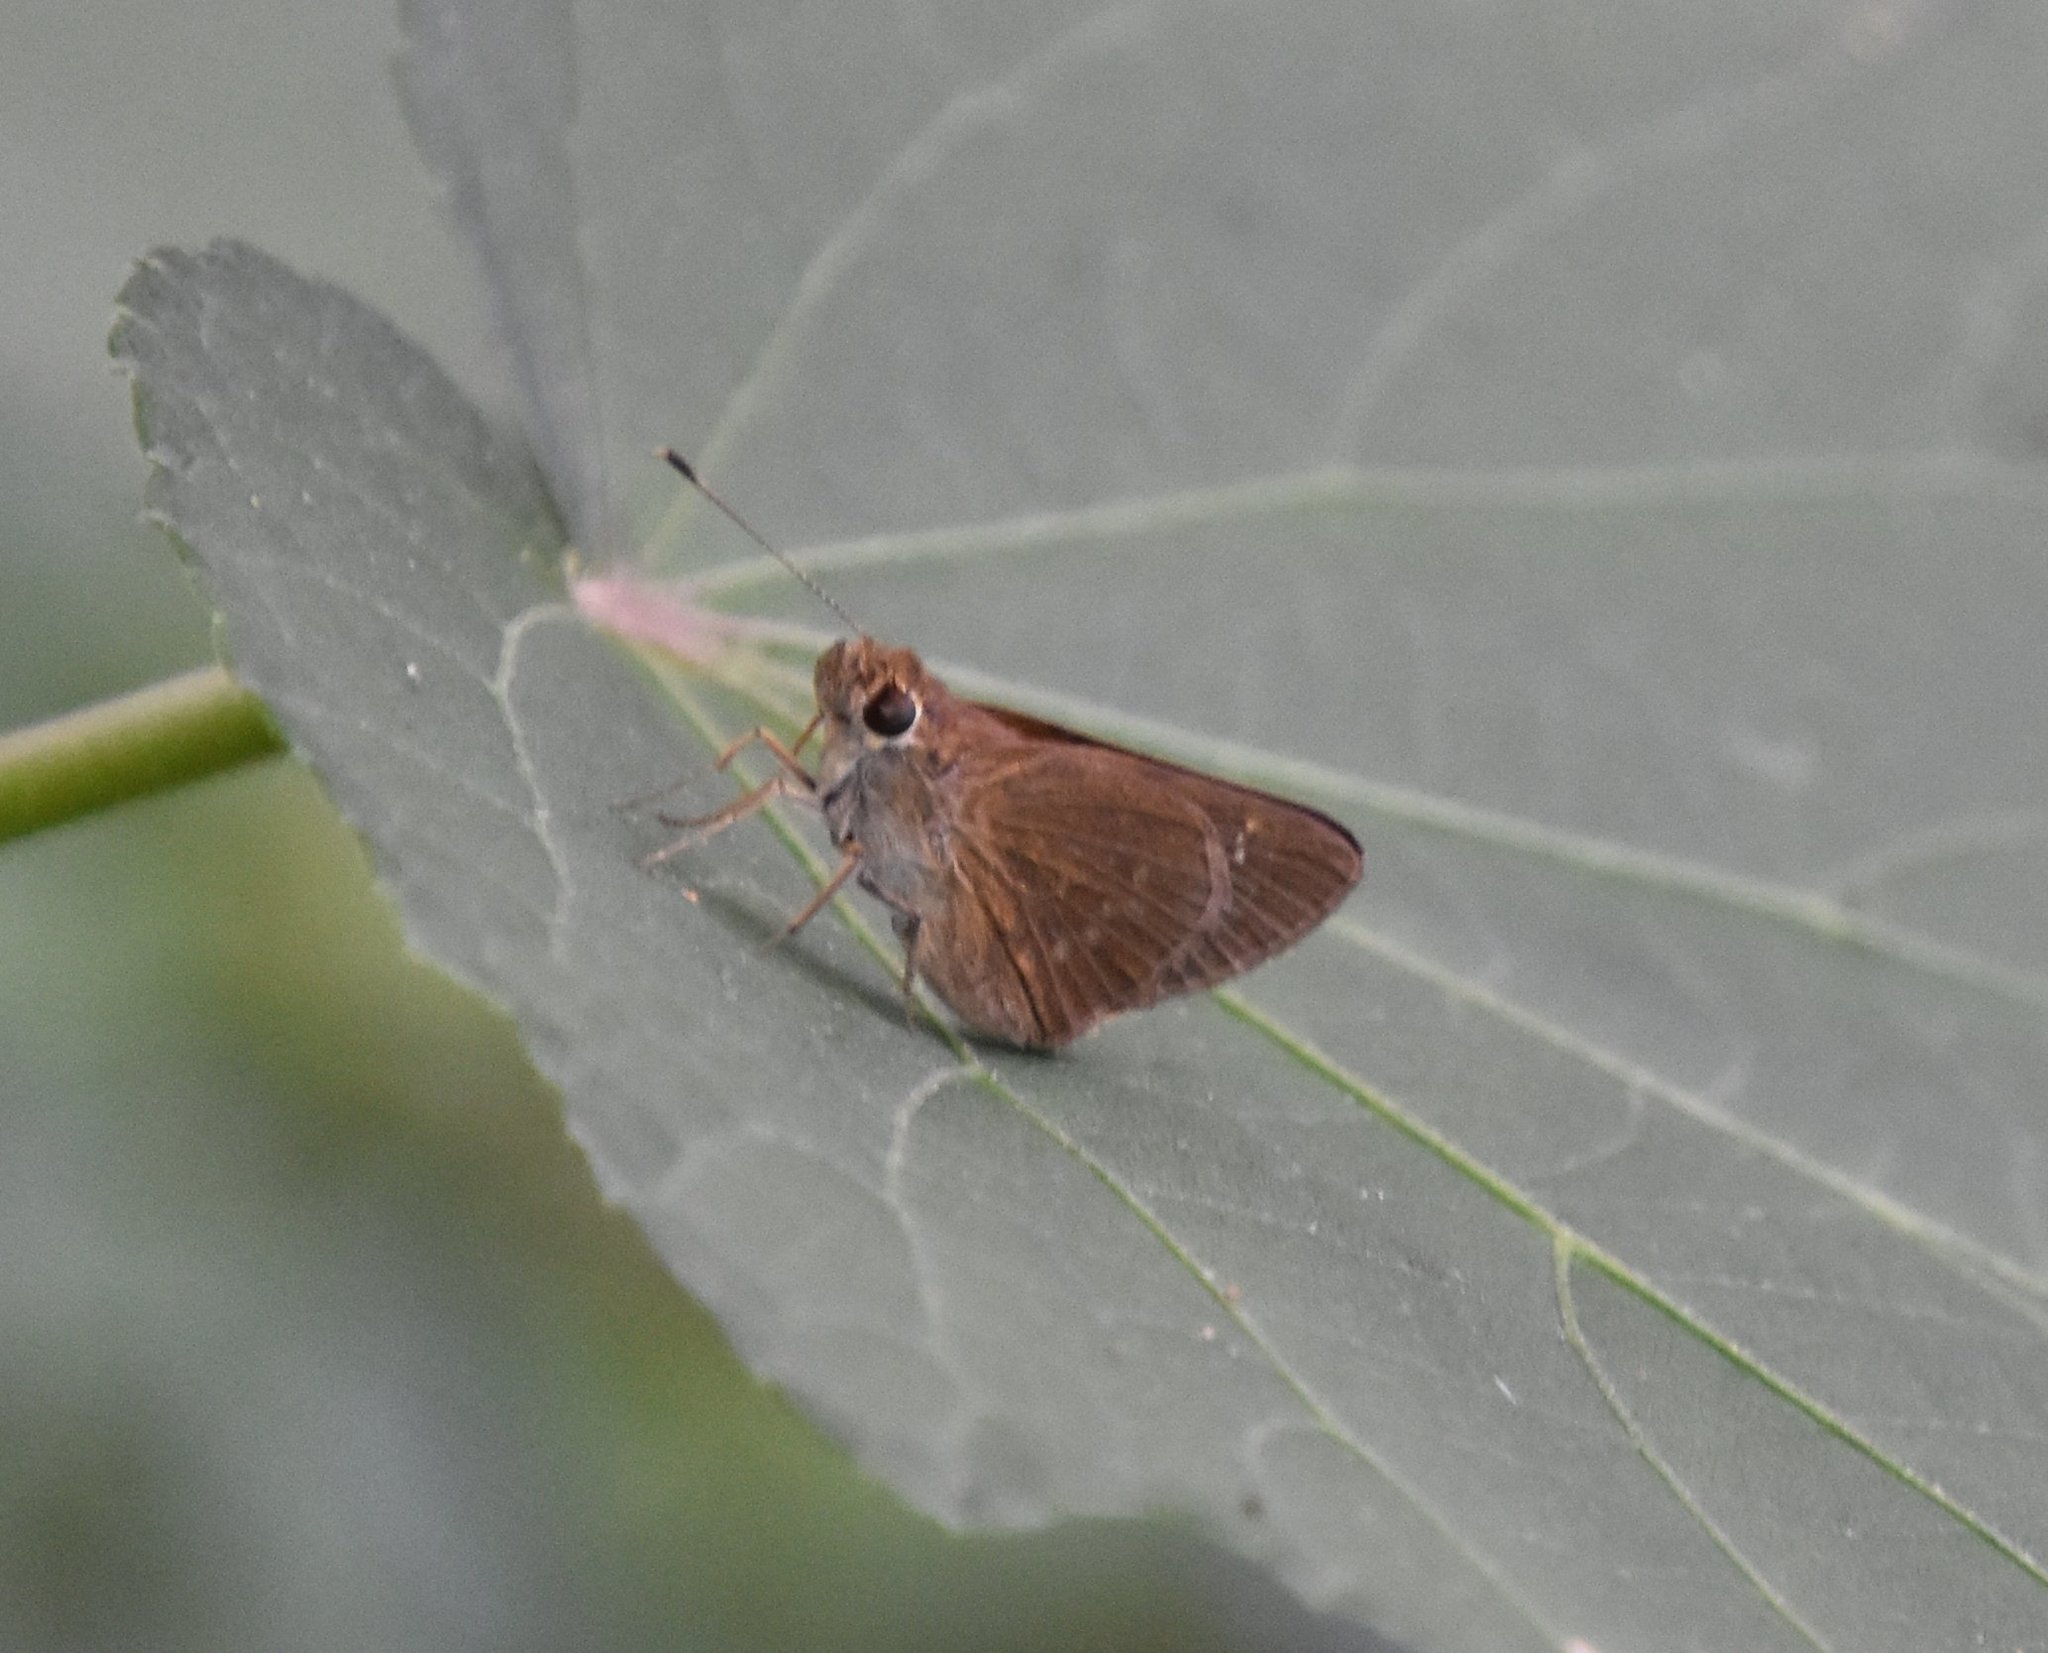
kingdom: Animalia
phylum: Arthropoda
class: Insecta
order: Lepidoptera
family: Hesperiidae
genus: Cymaenes
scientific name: Cymaenes tripunctus
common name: Dingy dotted skipper
